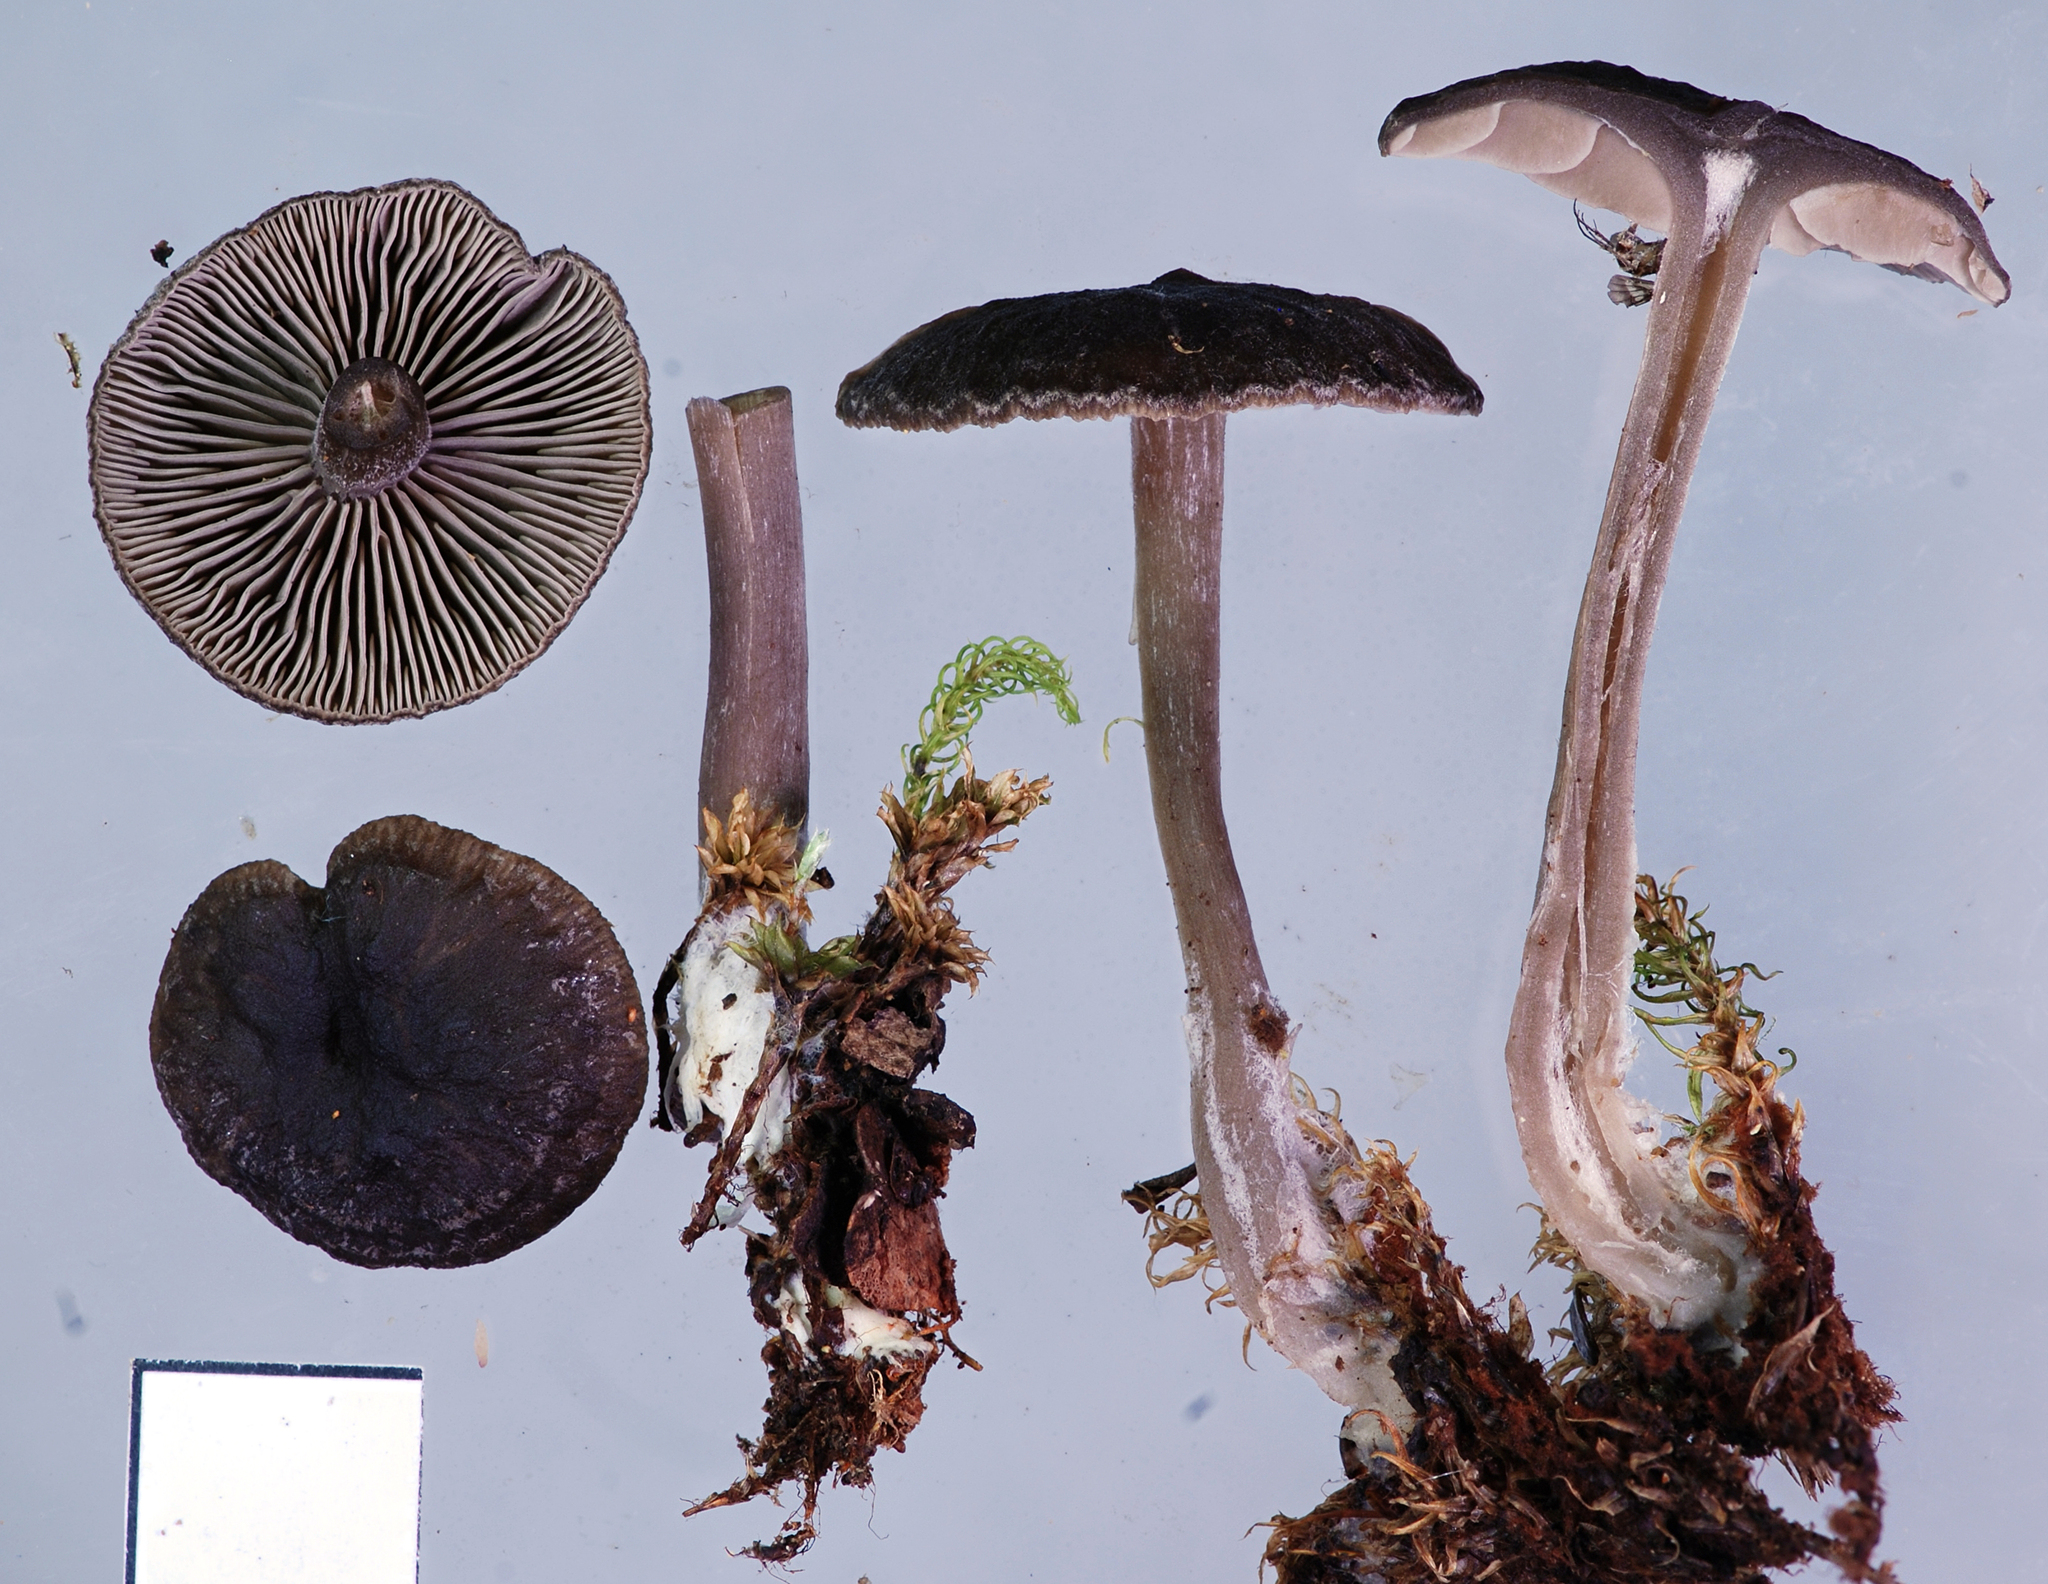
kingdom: Fungi
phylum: Basidiomycota
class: Agaricomycetes
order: Agaricales
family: Tricholomataceae
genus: Clitocybe
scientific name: Clitocybe brunneocaperata
